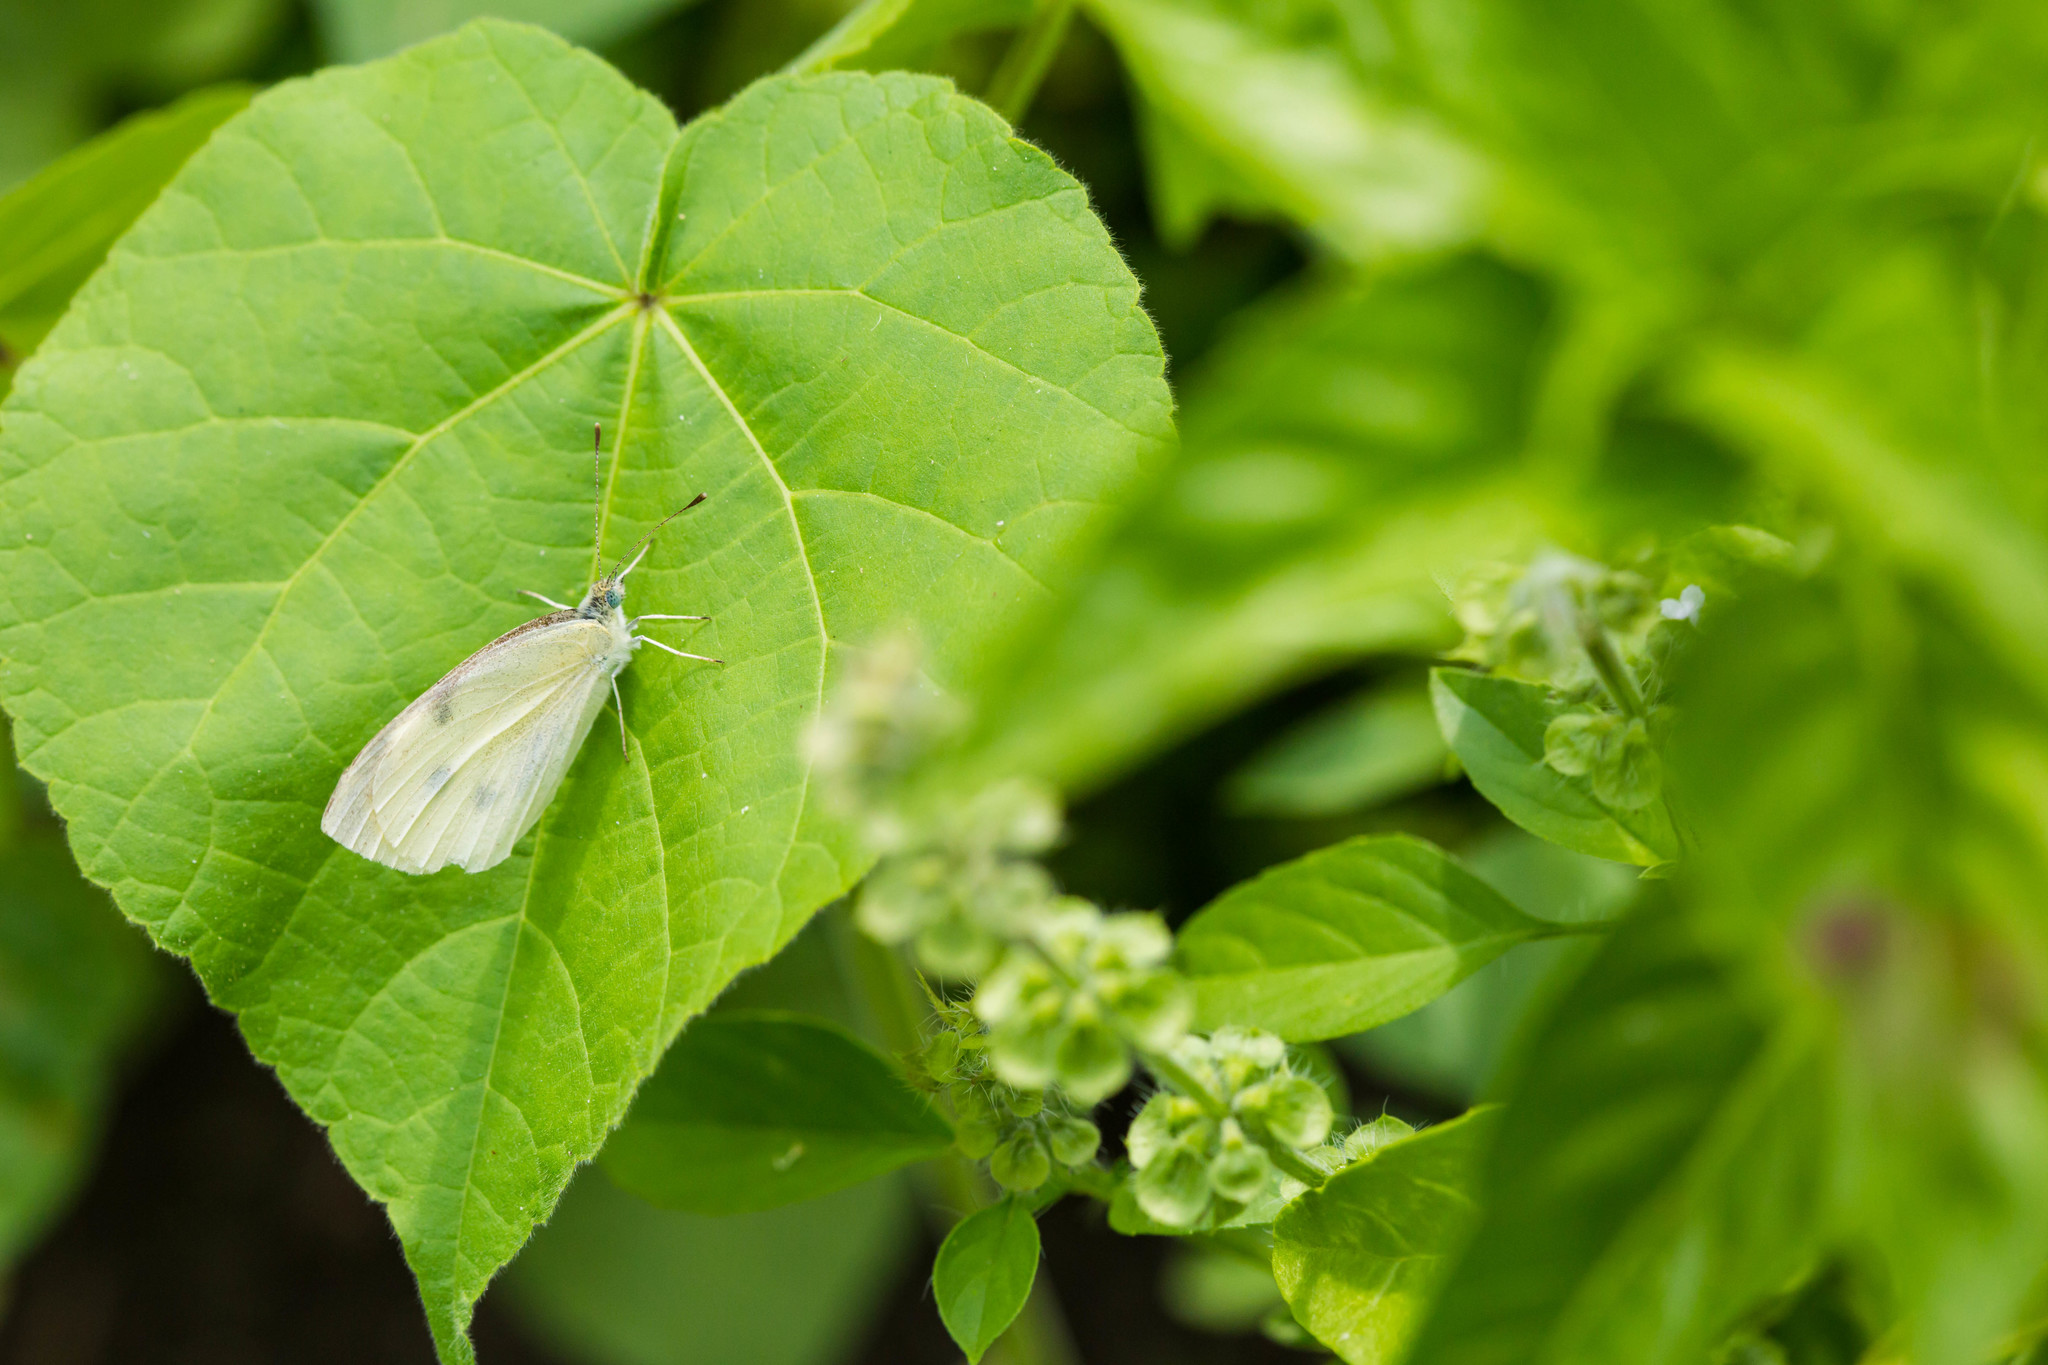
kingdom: Animalia
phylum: Arthropoda
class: Insecta
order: Lepidoptera
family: Pieridae
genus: Pieris
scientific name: Pieris rapae
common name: Small white
